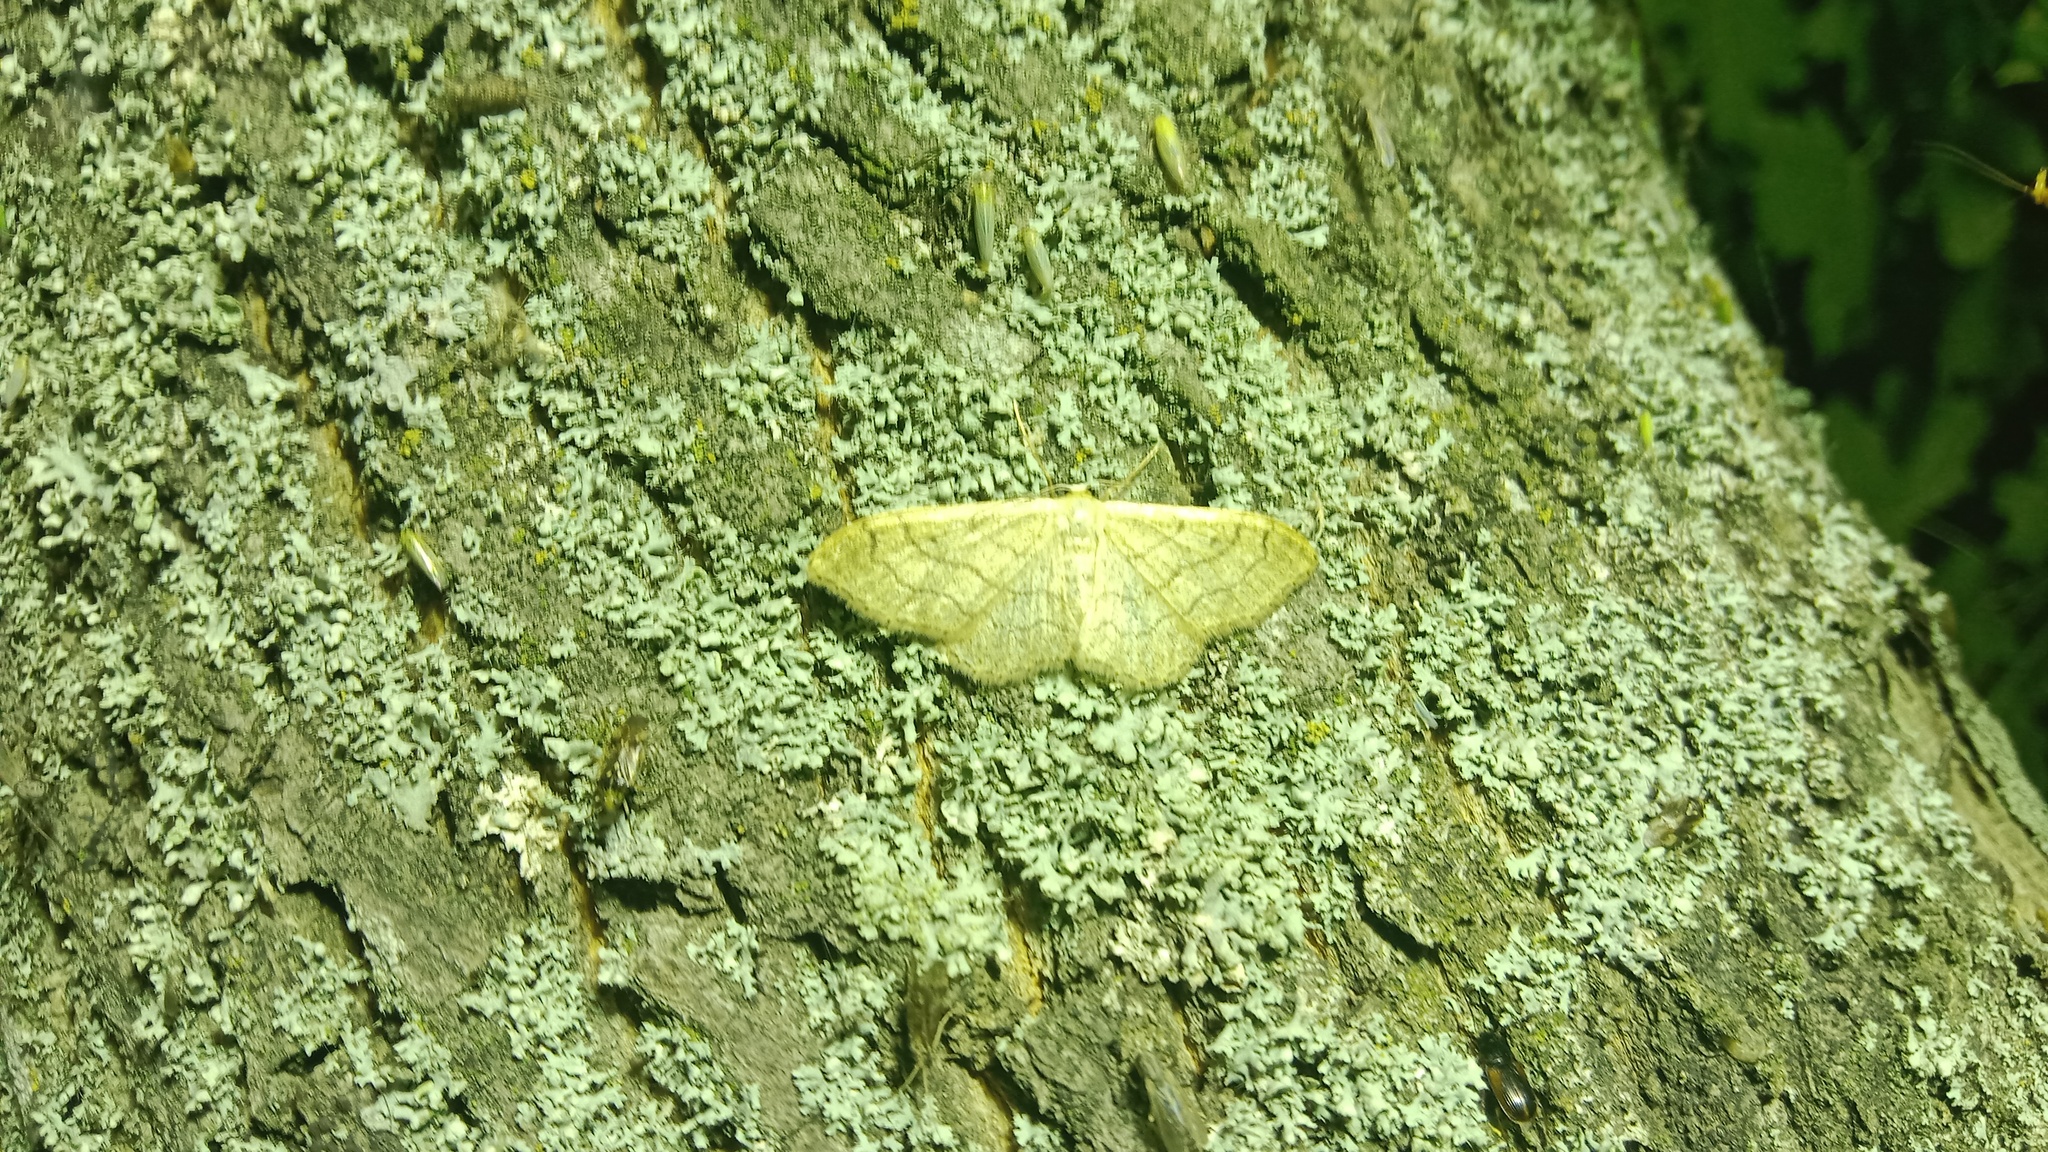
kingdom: Animalia
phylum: Arthropoda
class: Insecta
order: Lepidoptera
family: Geometridae
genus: Idaea
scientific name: Idaea aversata
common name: Riband wave
